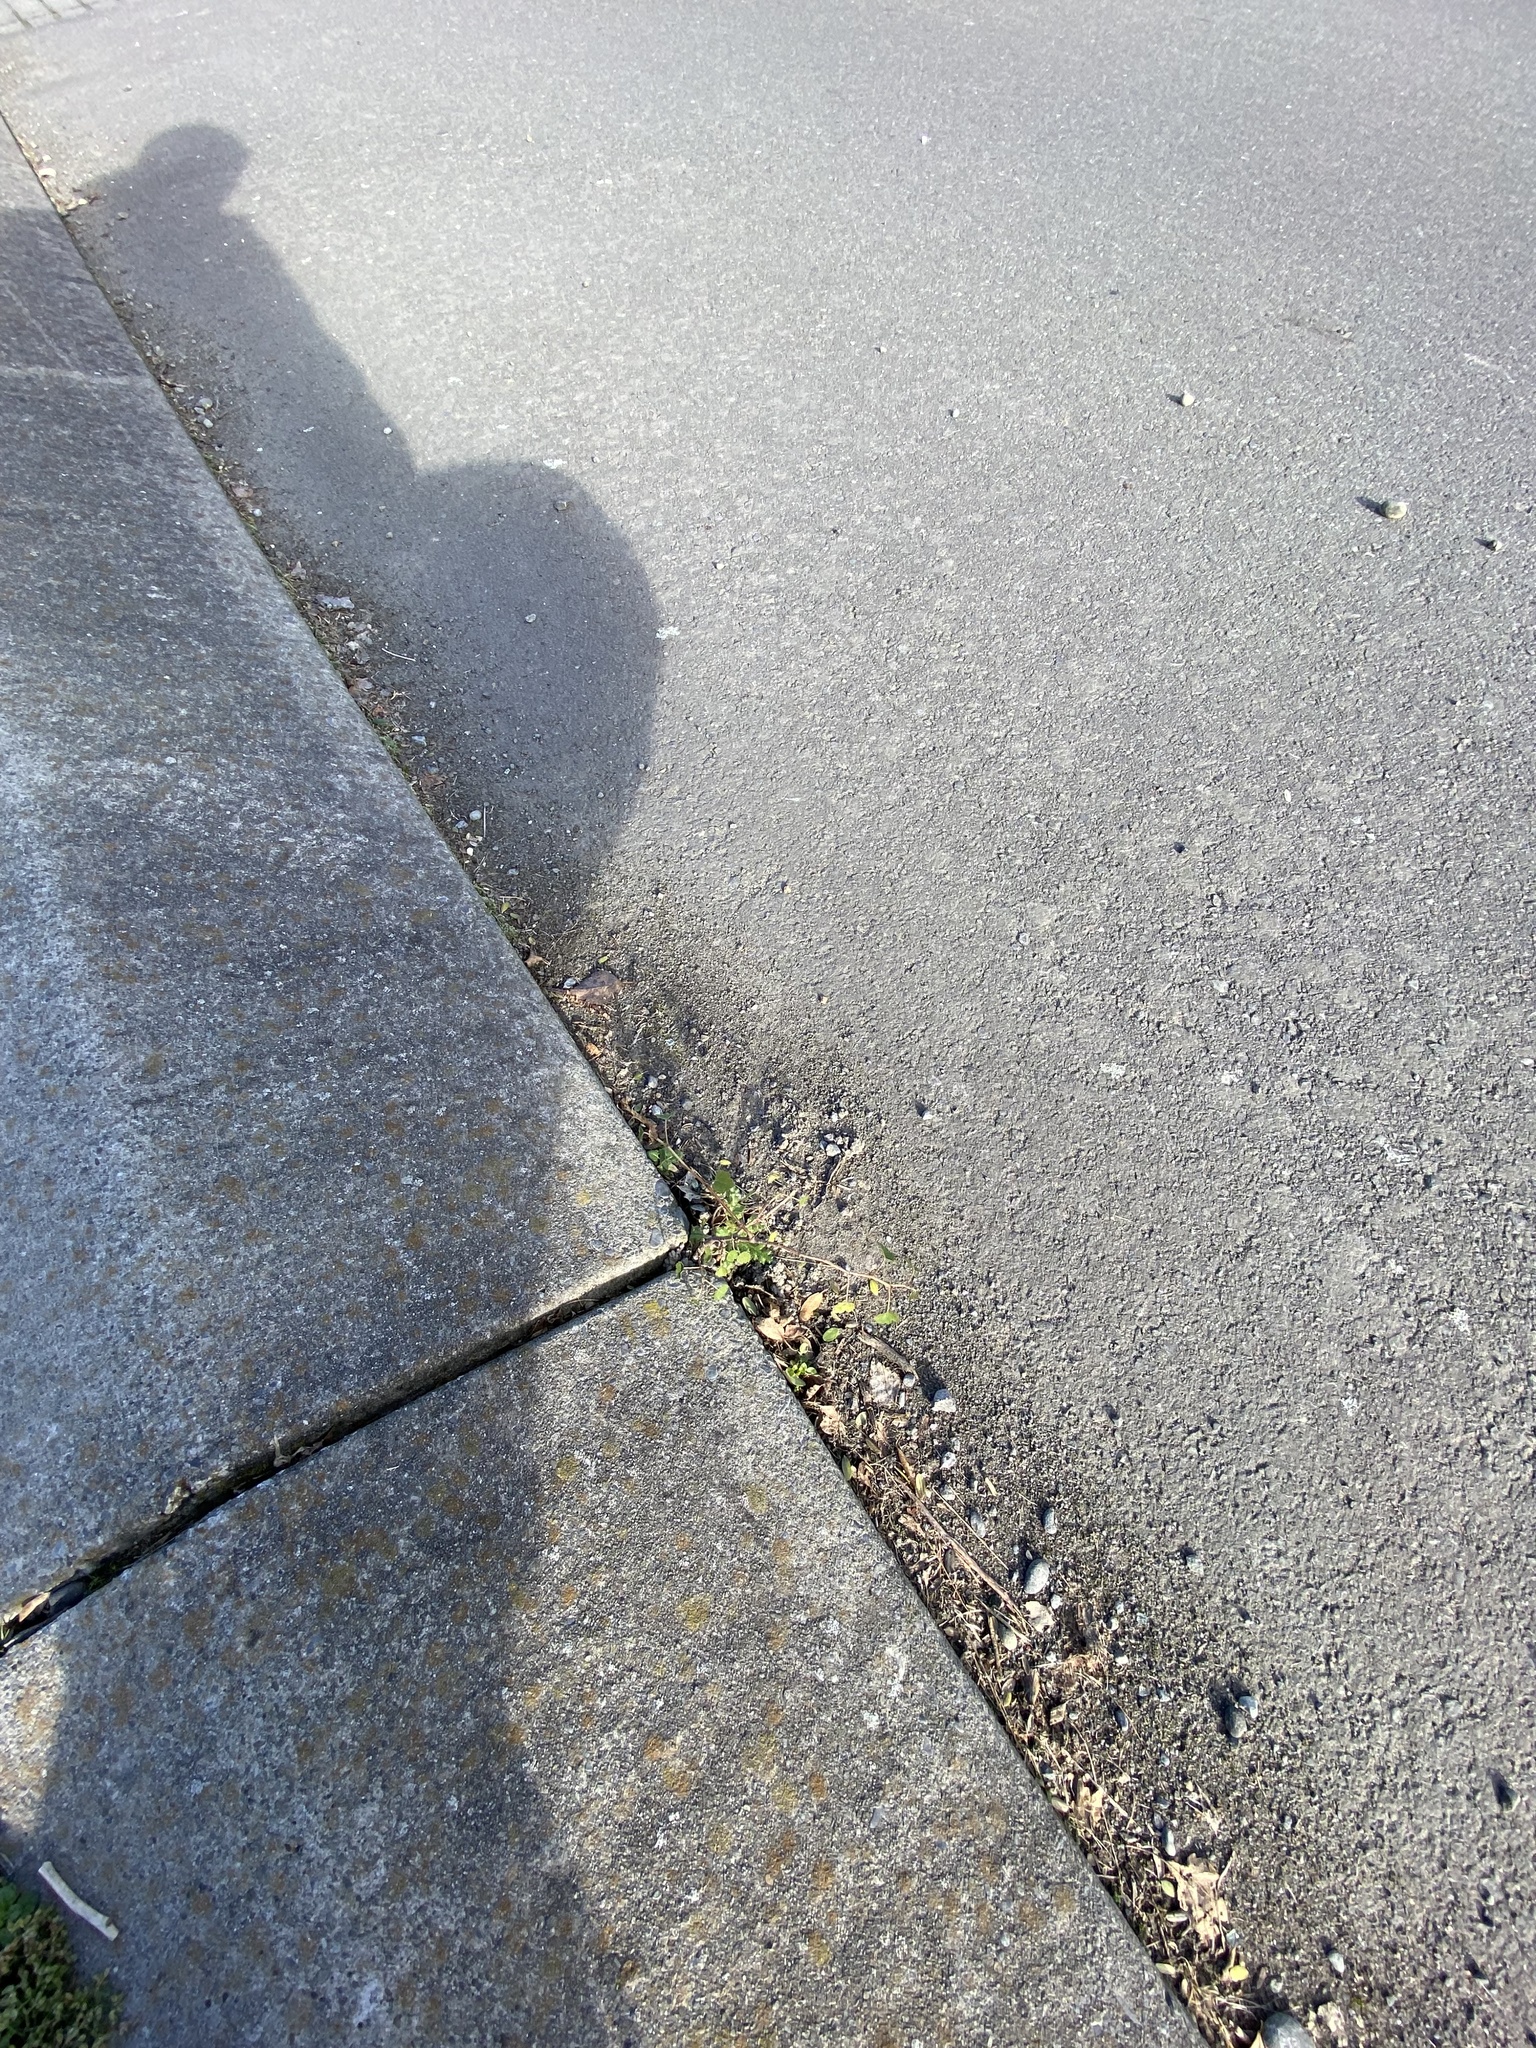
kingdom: Plantae
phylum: Tracheophyta
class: Magnoliopsida
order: Malvales
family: Malvaceae
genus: Plagianthus
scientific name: Plagianthus regius
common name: Manatu
